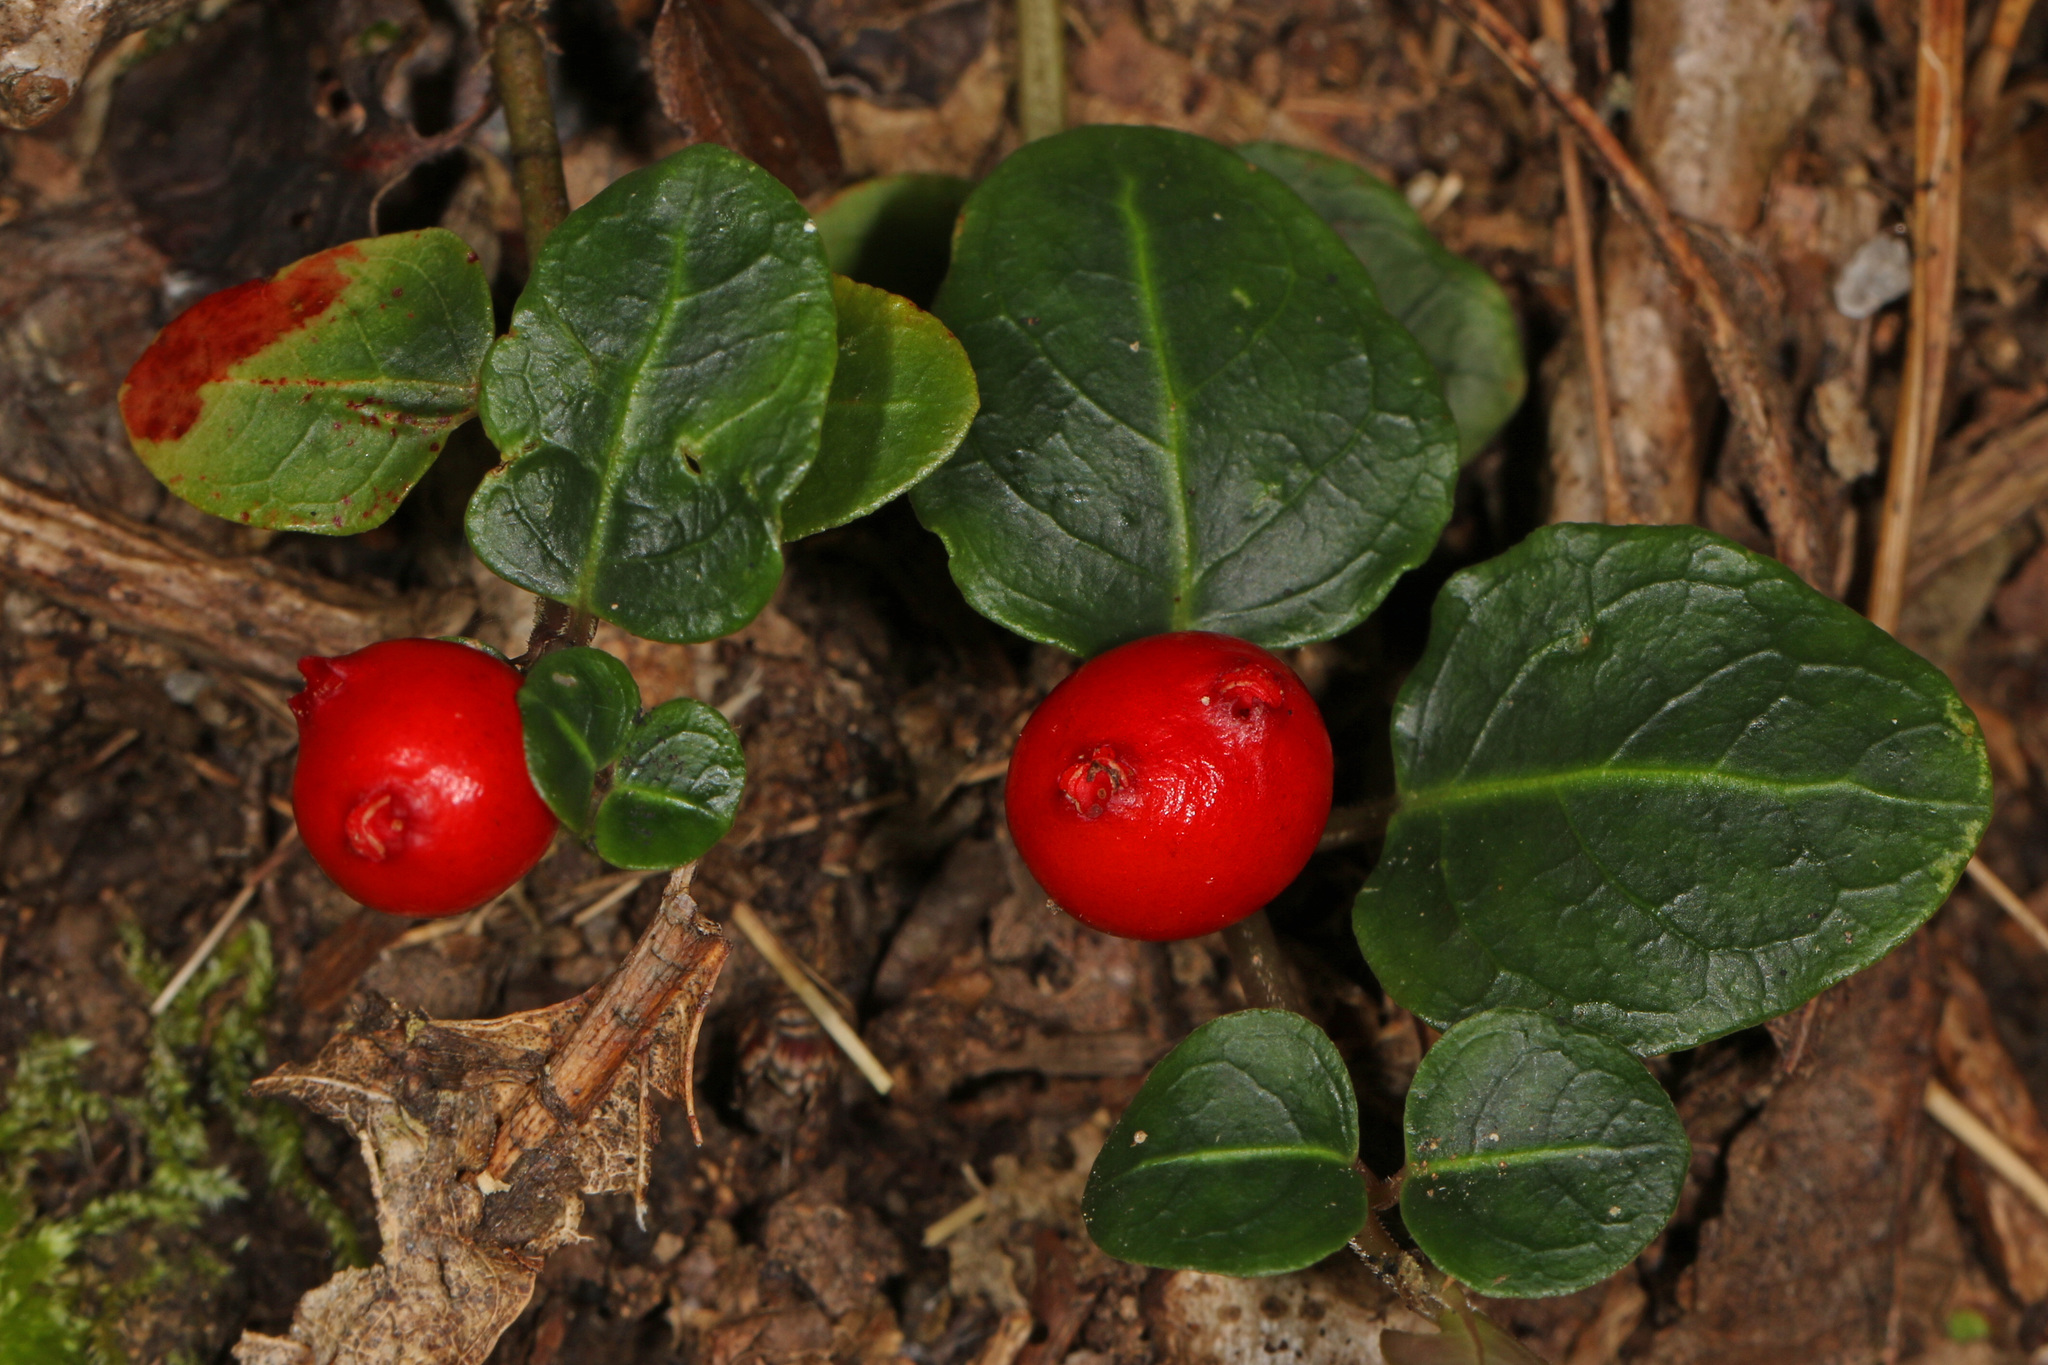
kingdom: Plantae
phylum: Tracheophyta
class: Magnoliopsida
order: Gentianales
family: Rubiaceae
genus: Mitchella
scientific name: Mitchella repens
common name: Partridge-berry
